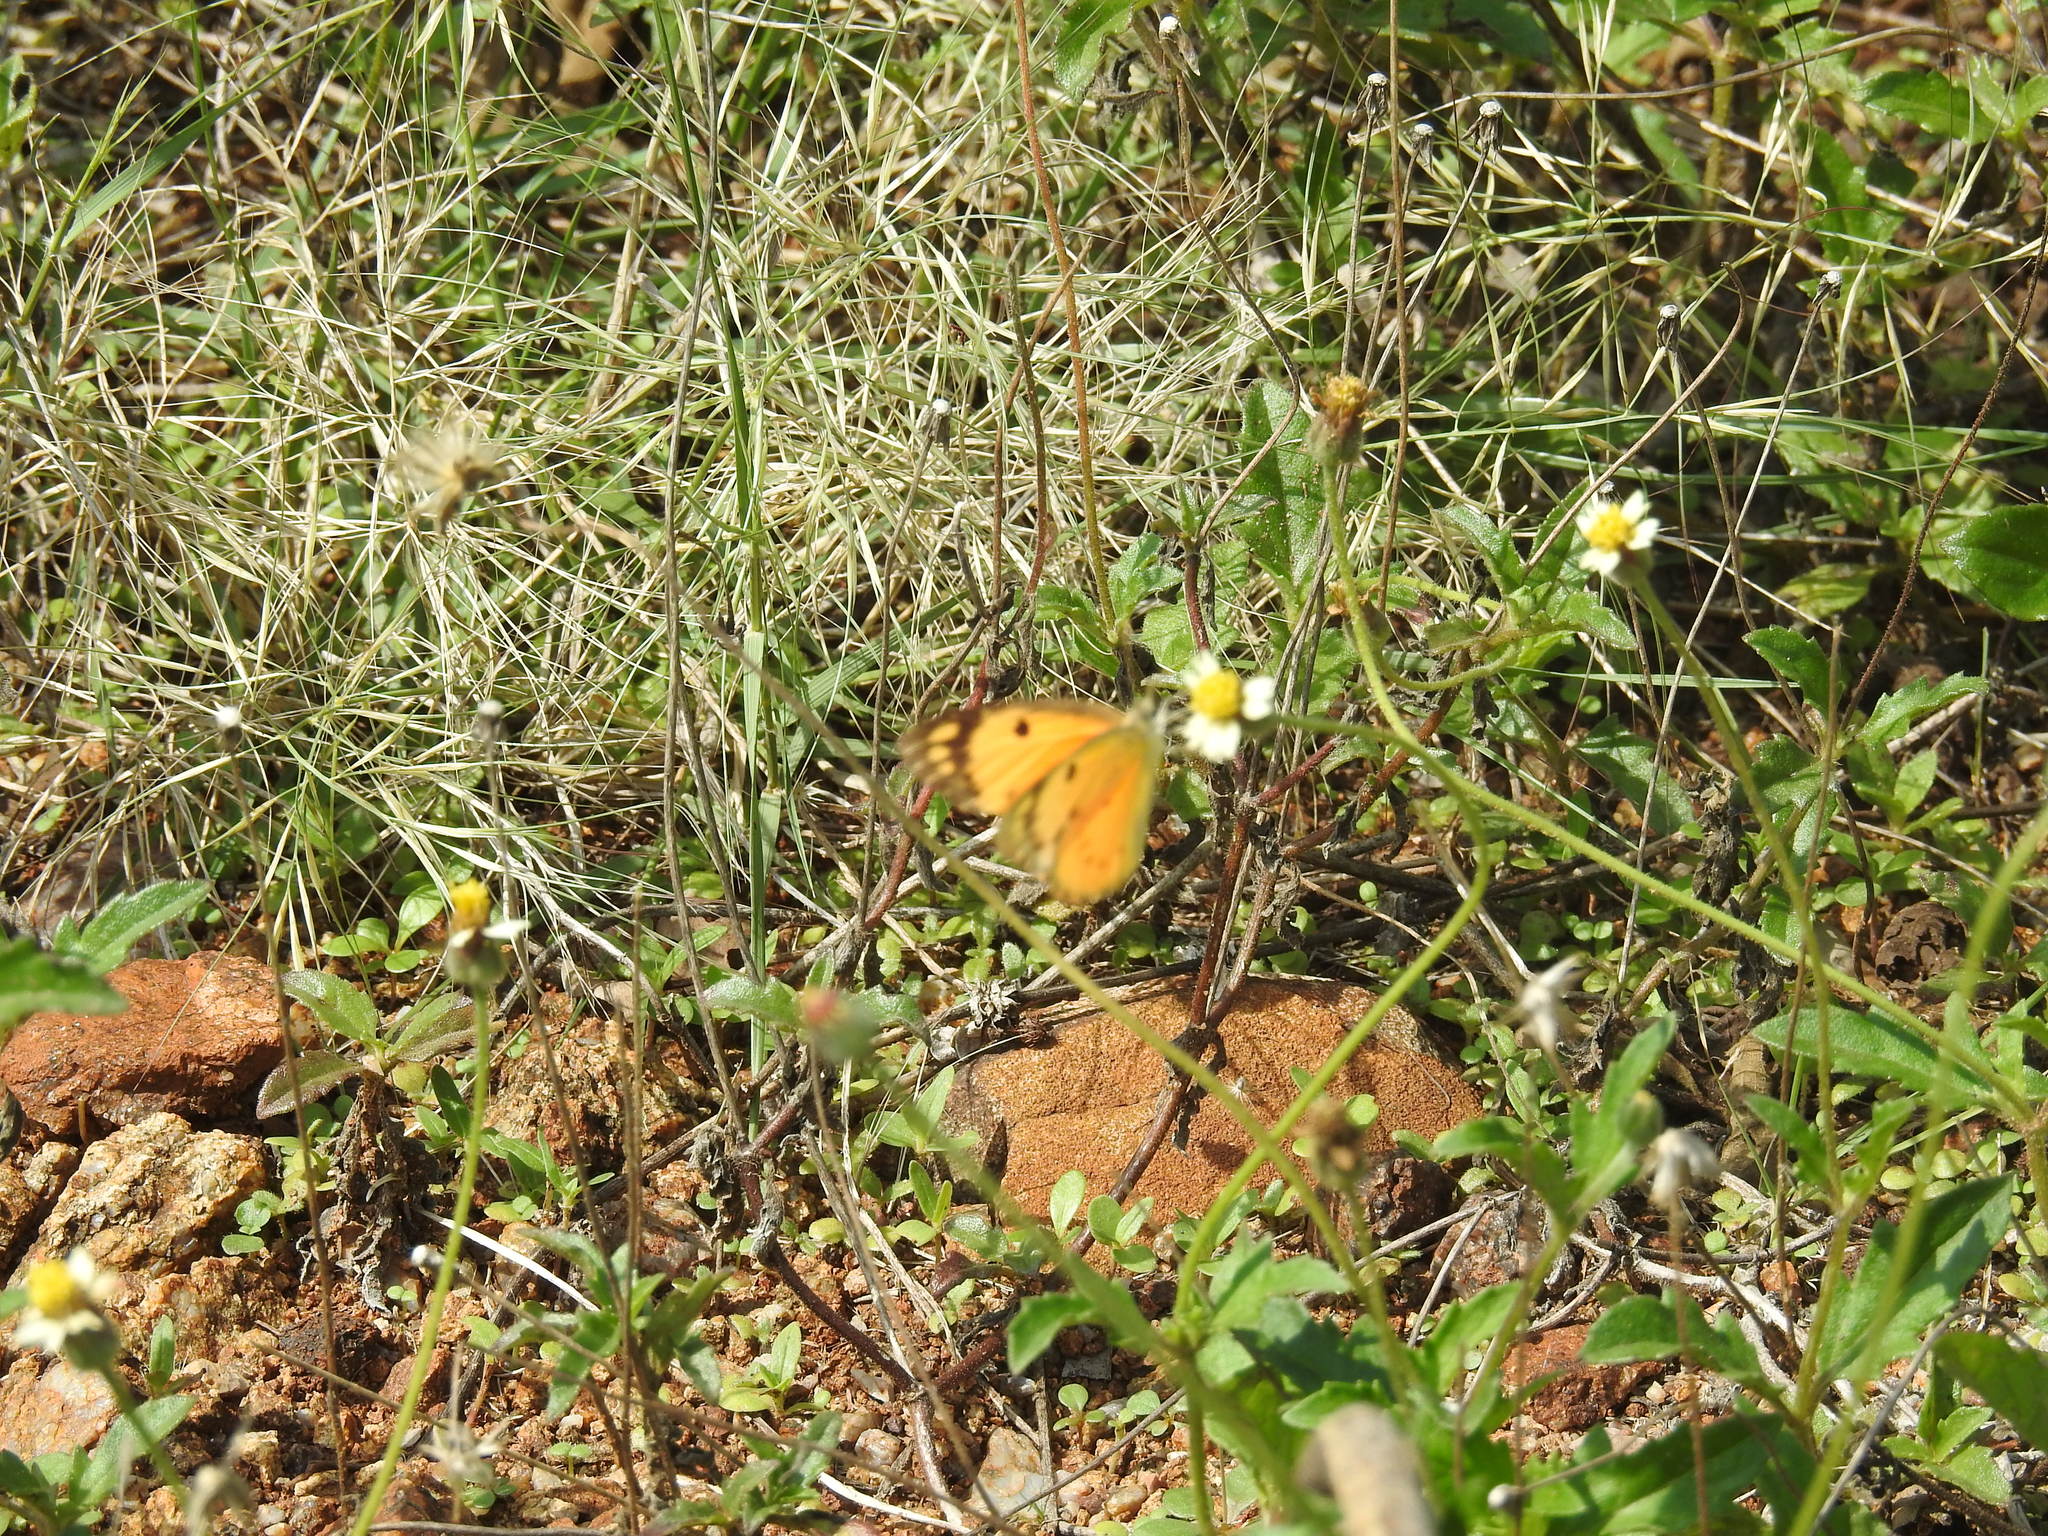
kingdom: Animalia
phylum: Arthropoda
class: Insecta
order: Lepidoptera
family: Pieridae
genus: Colotis
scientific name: Colotis fausta
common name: Large salmon arab
